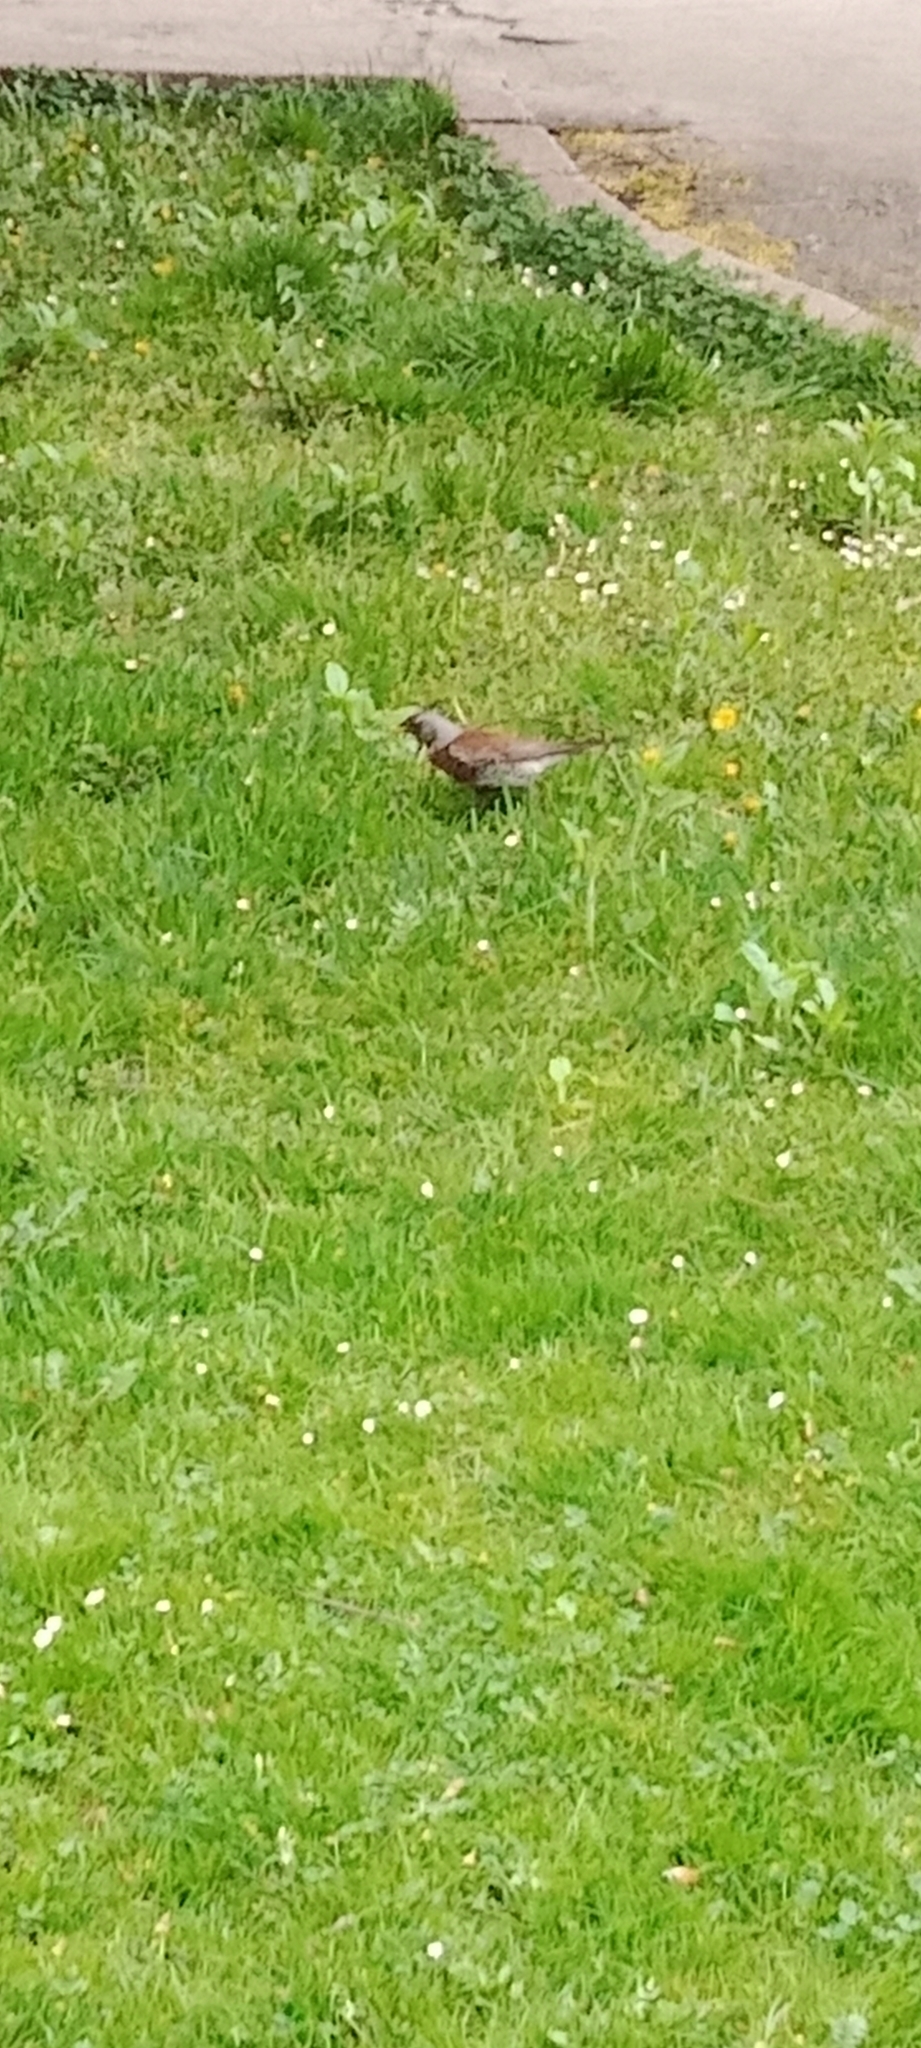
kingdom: Animalia
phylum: Chordata
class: Aves
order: Passeriformes
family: Turdidae
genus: Turdus
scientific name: Turdus pilaris
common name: Fieldfare
